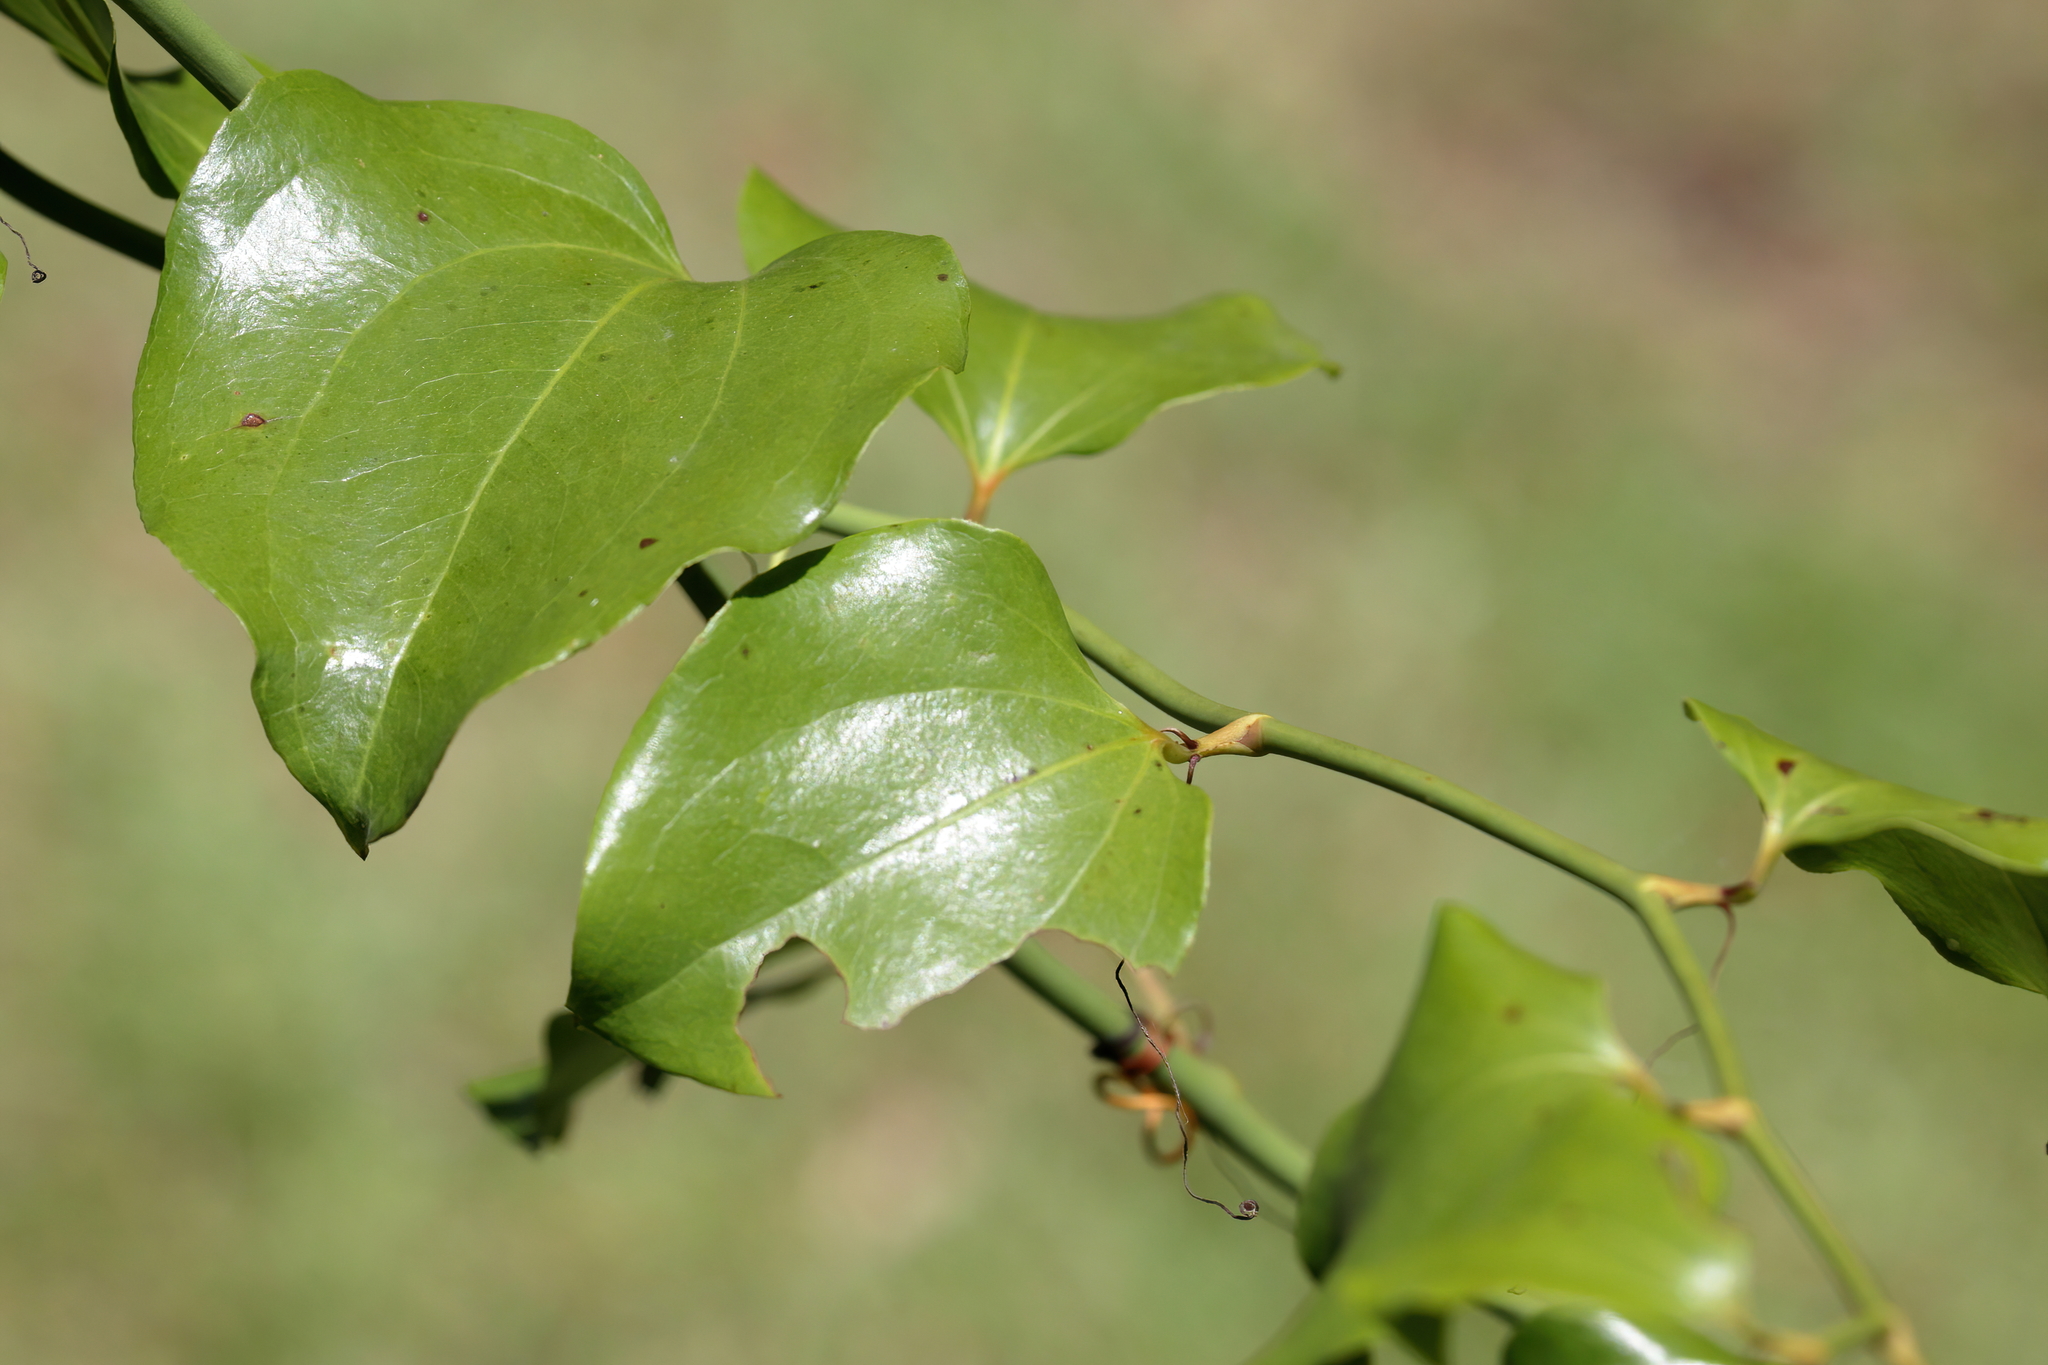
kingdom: Plantae
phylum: Tracheophyta
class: Liliopsida
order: Liliales
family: Smilacaceae
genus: Smilax
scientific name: Smilax bona-nox
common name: Catbrier
